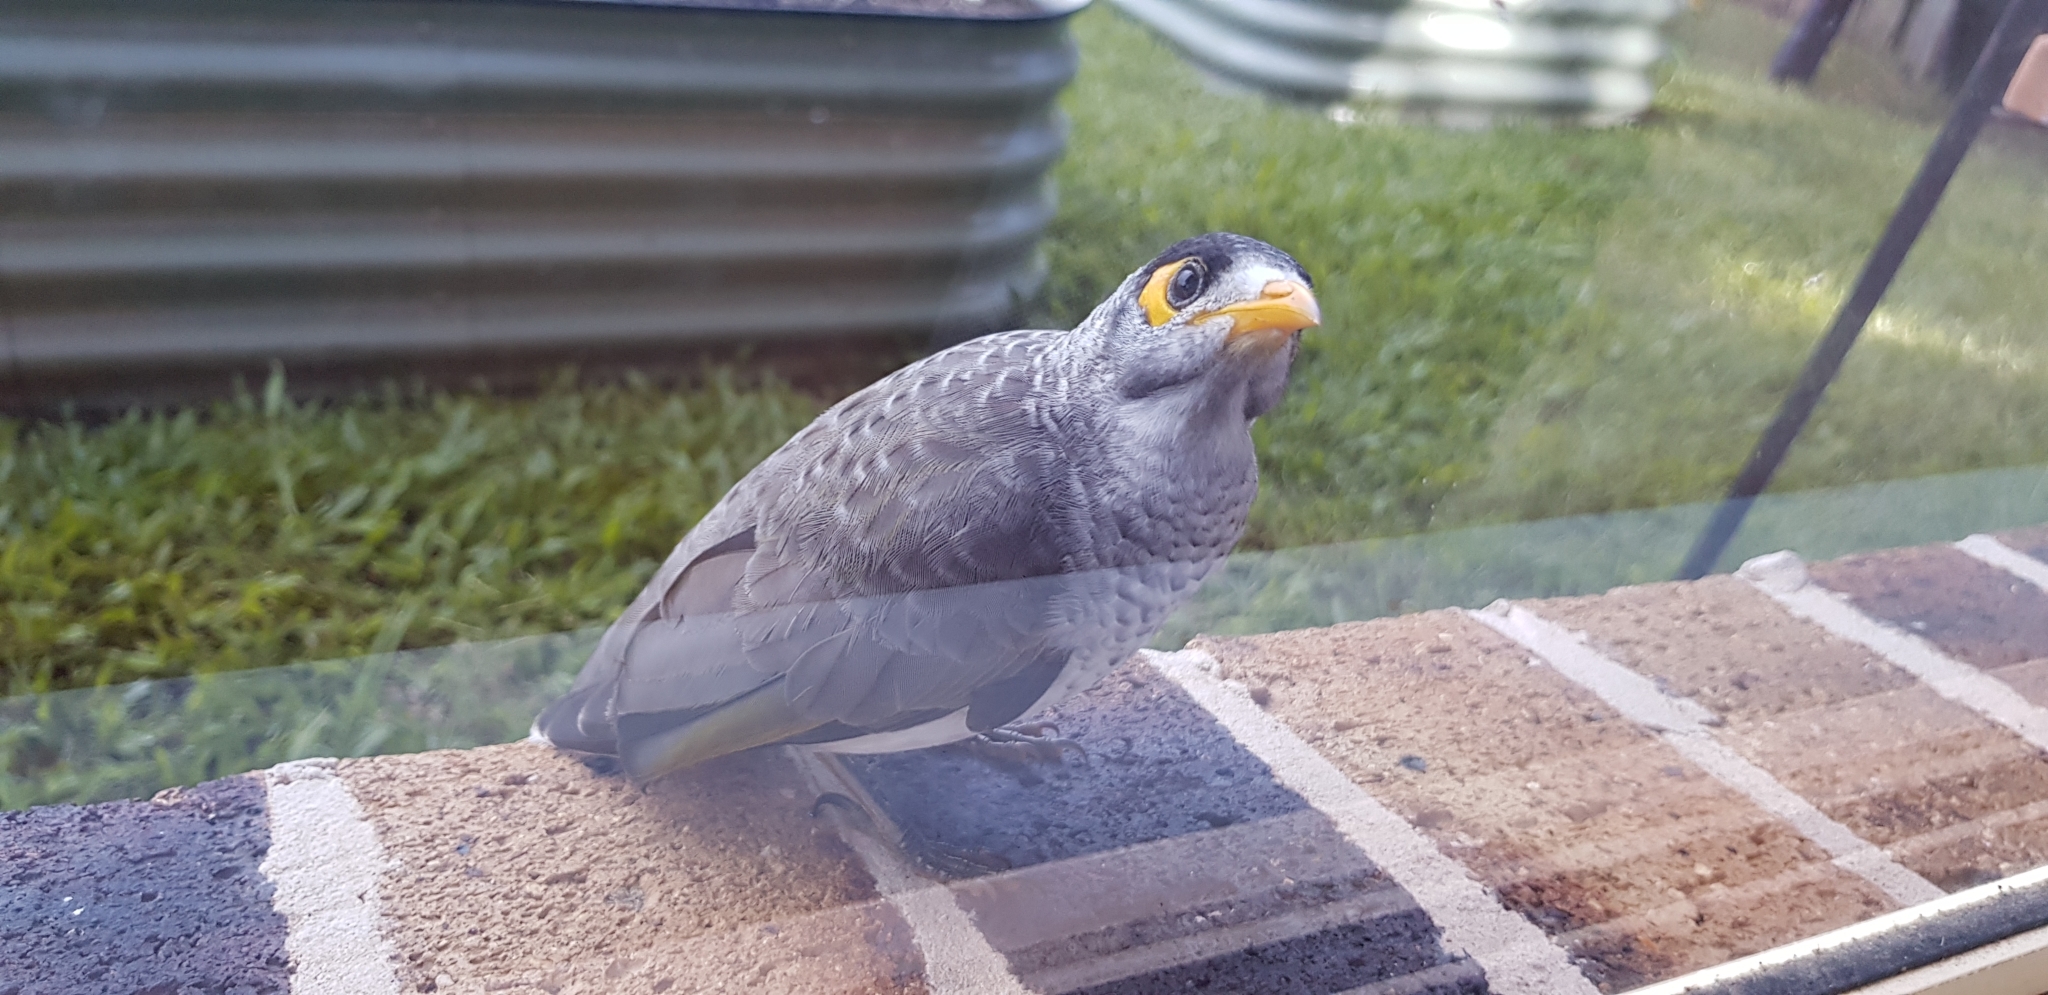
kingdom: Animalia
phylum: Chordata
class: Aves
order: Passeriformes
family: Meliphagidae
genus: Manorina
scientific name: Manorina melanocephala
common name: Noisy miner
